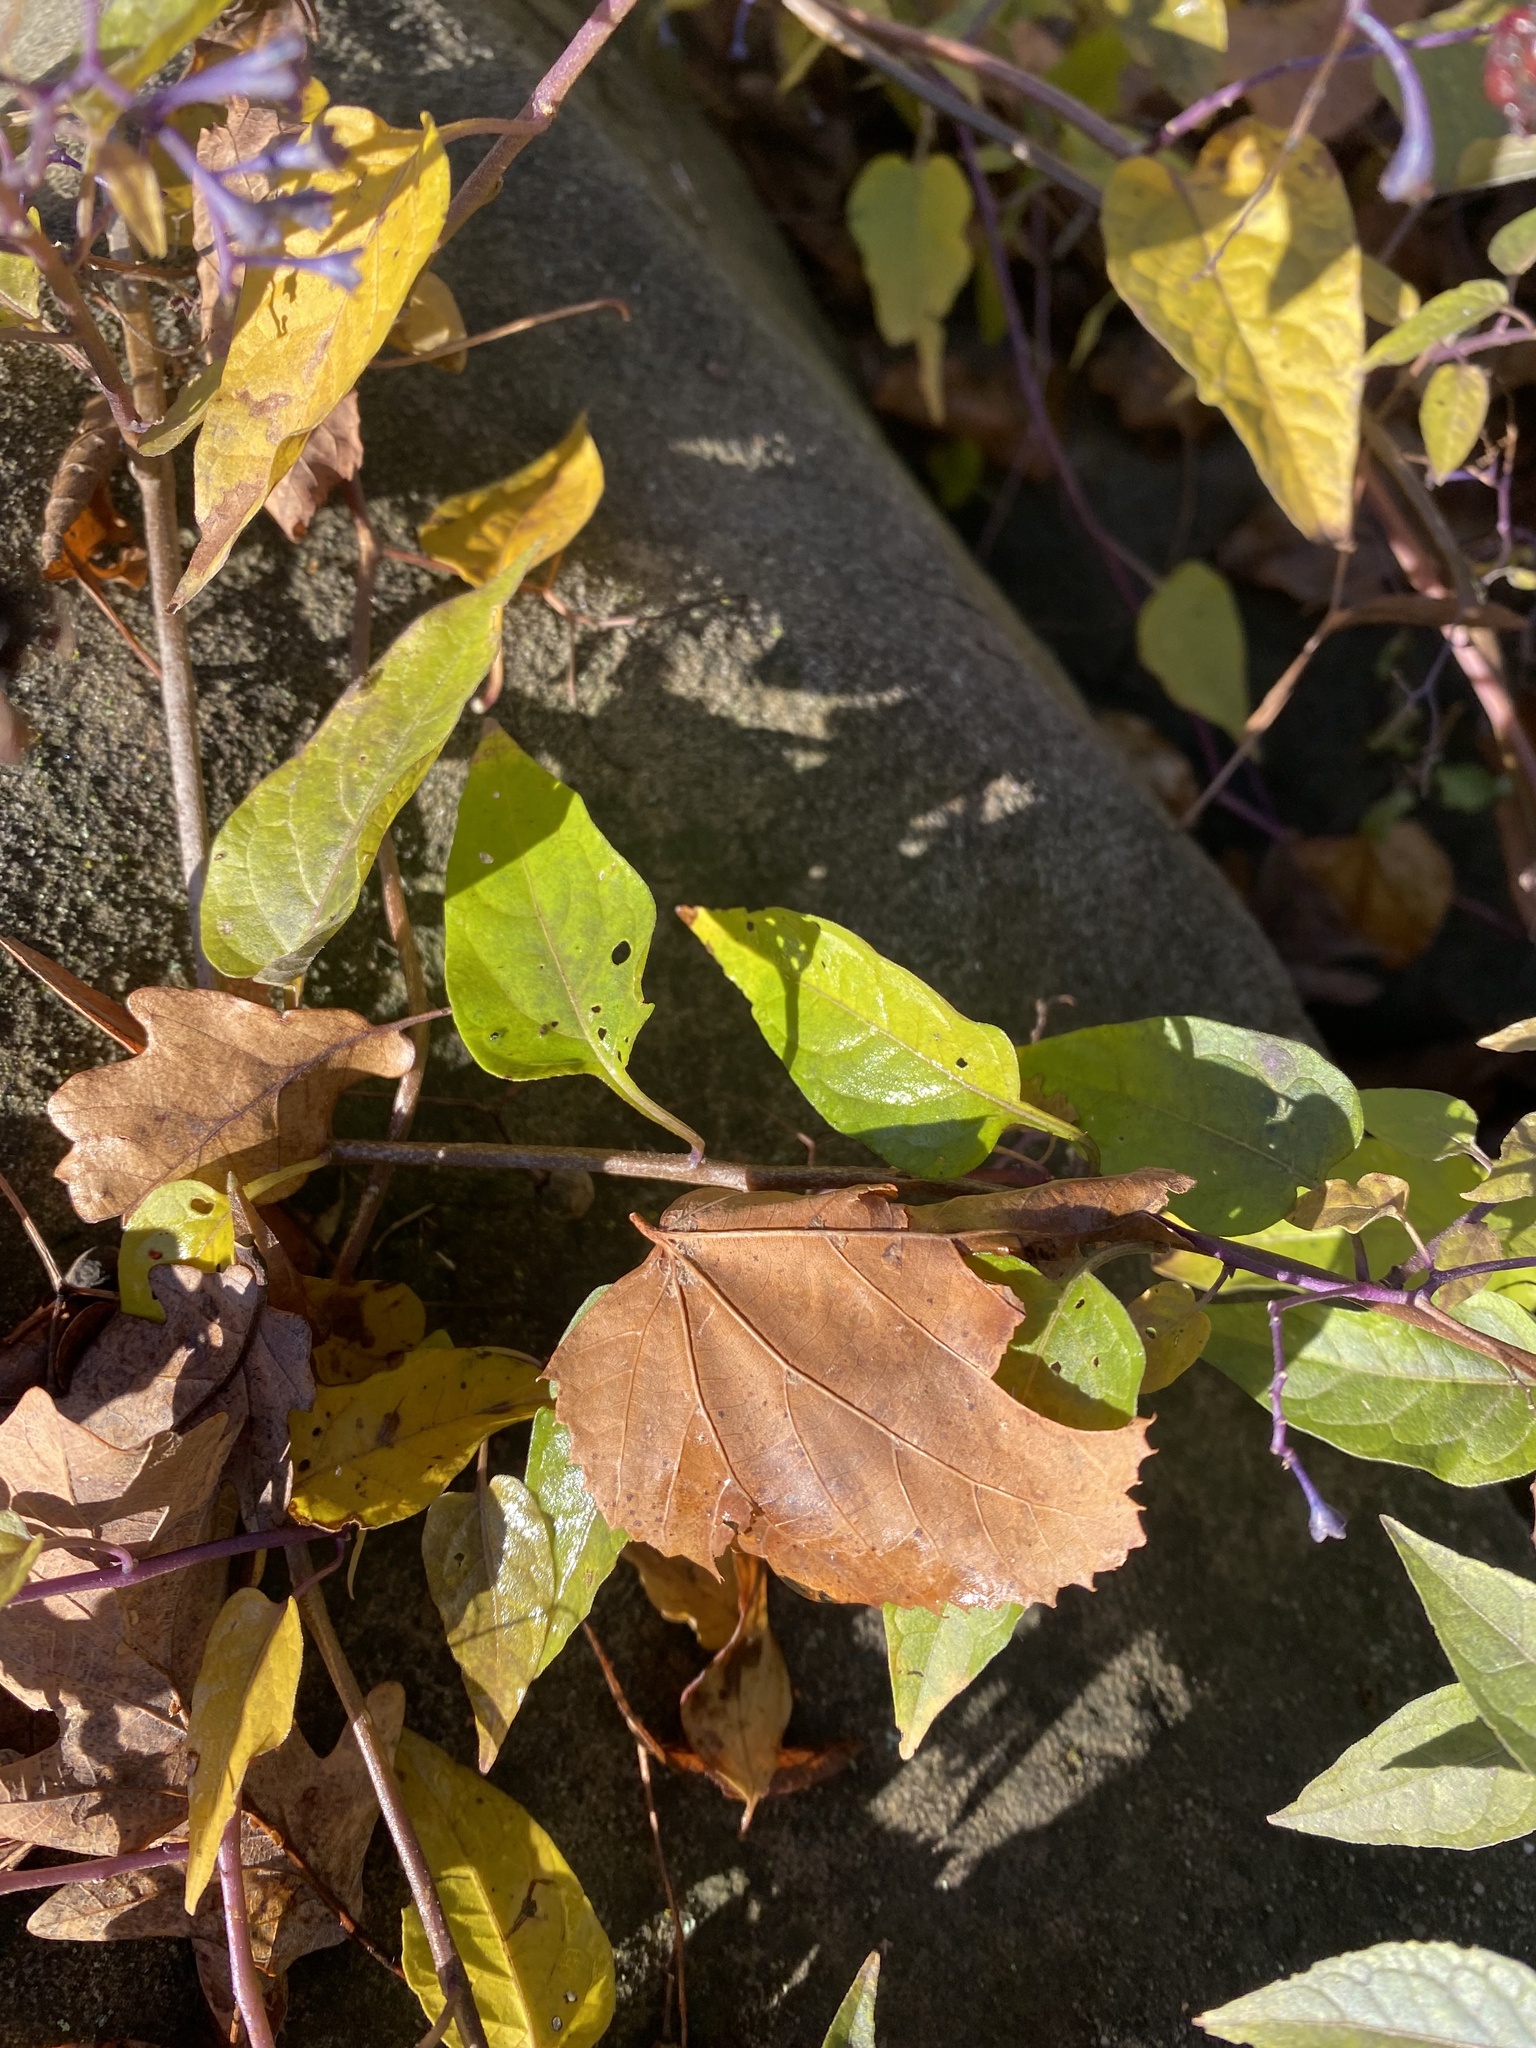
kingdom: Plantae
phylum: Tracheophyta
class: Magnoliopsida
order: Solanales
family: Solanaceae
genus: Solanum
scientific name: Solanum dulcamara
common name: Climbing nightshade
